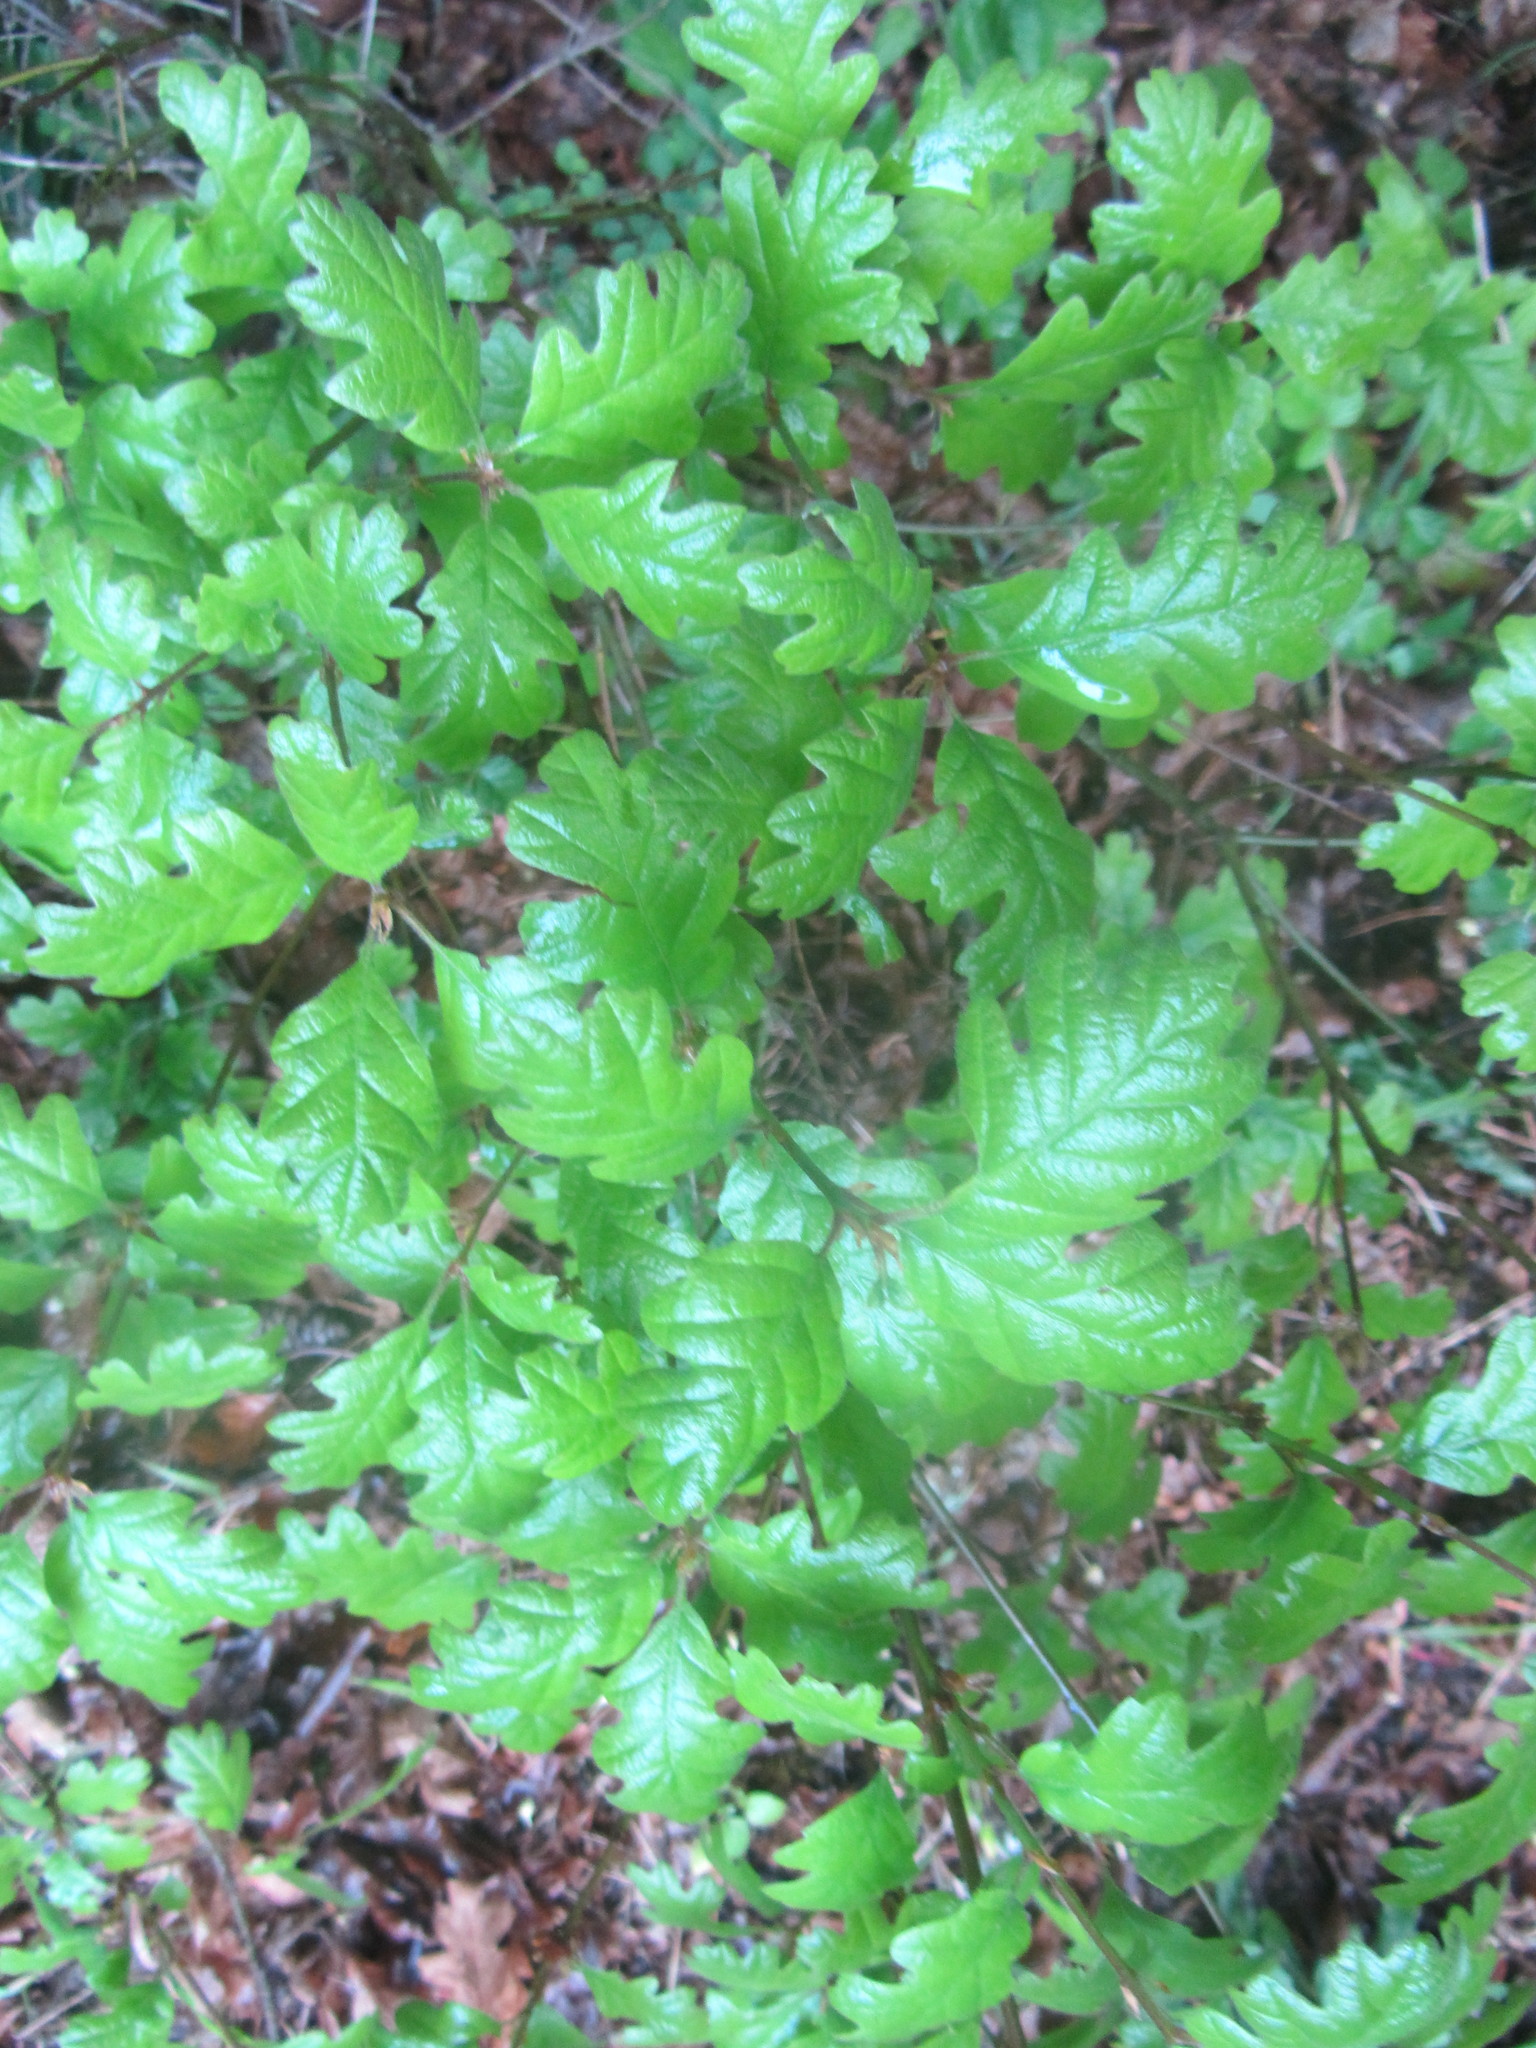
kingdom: Plantae
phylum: Tracheophyta
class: Magnoliopsida
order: Fagales
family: Fagaceae
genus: Quercus
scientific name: Quercus garryana
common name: Garry oak
